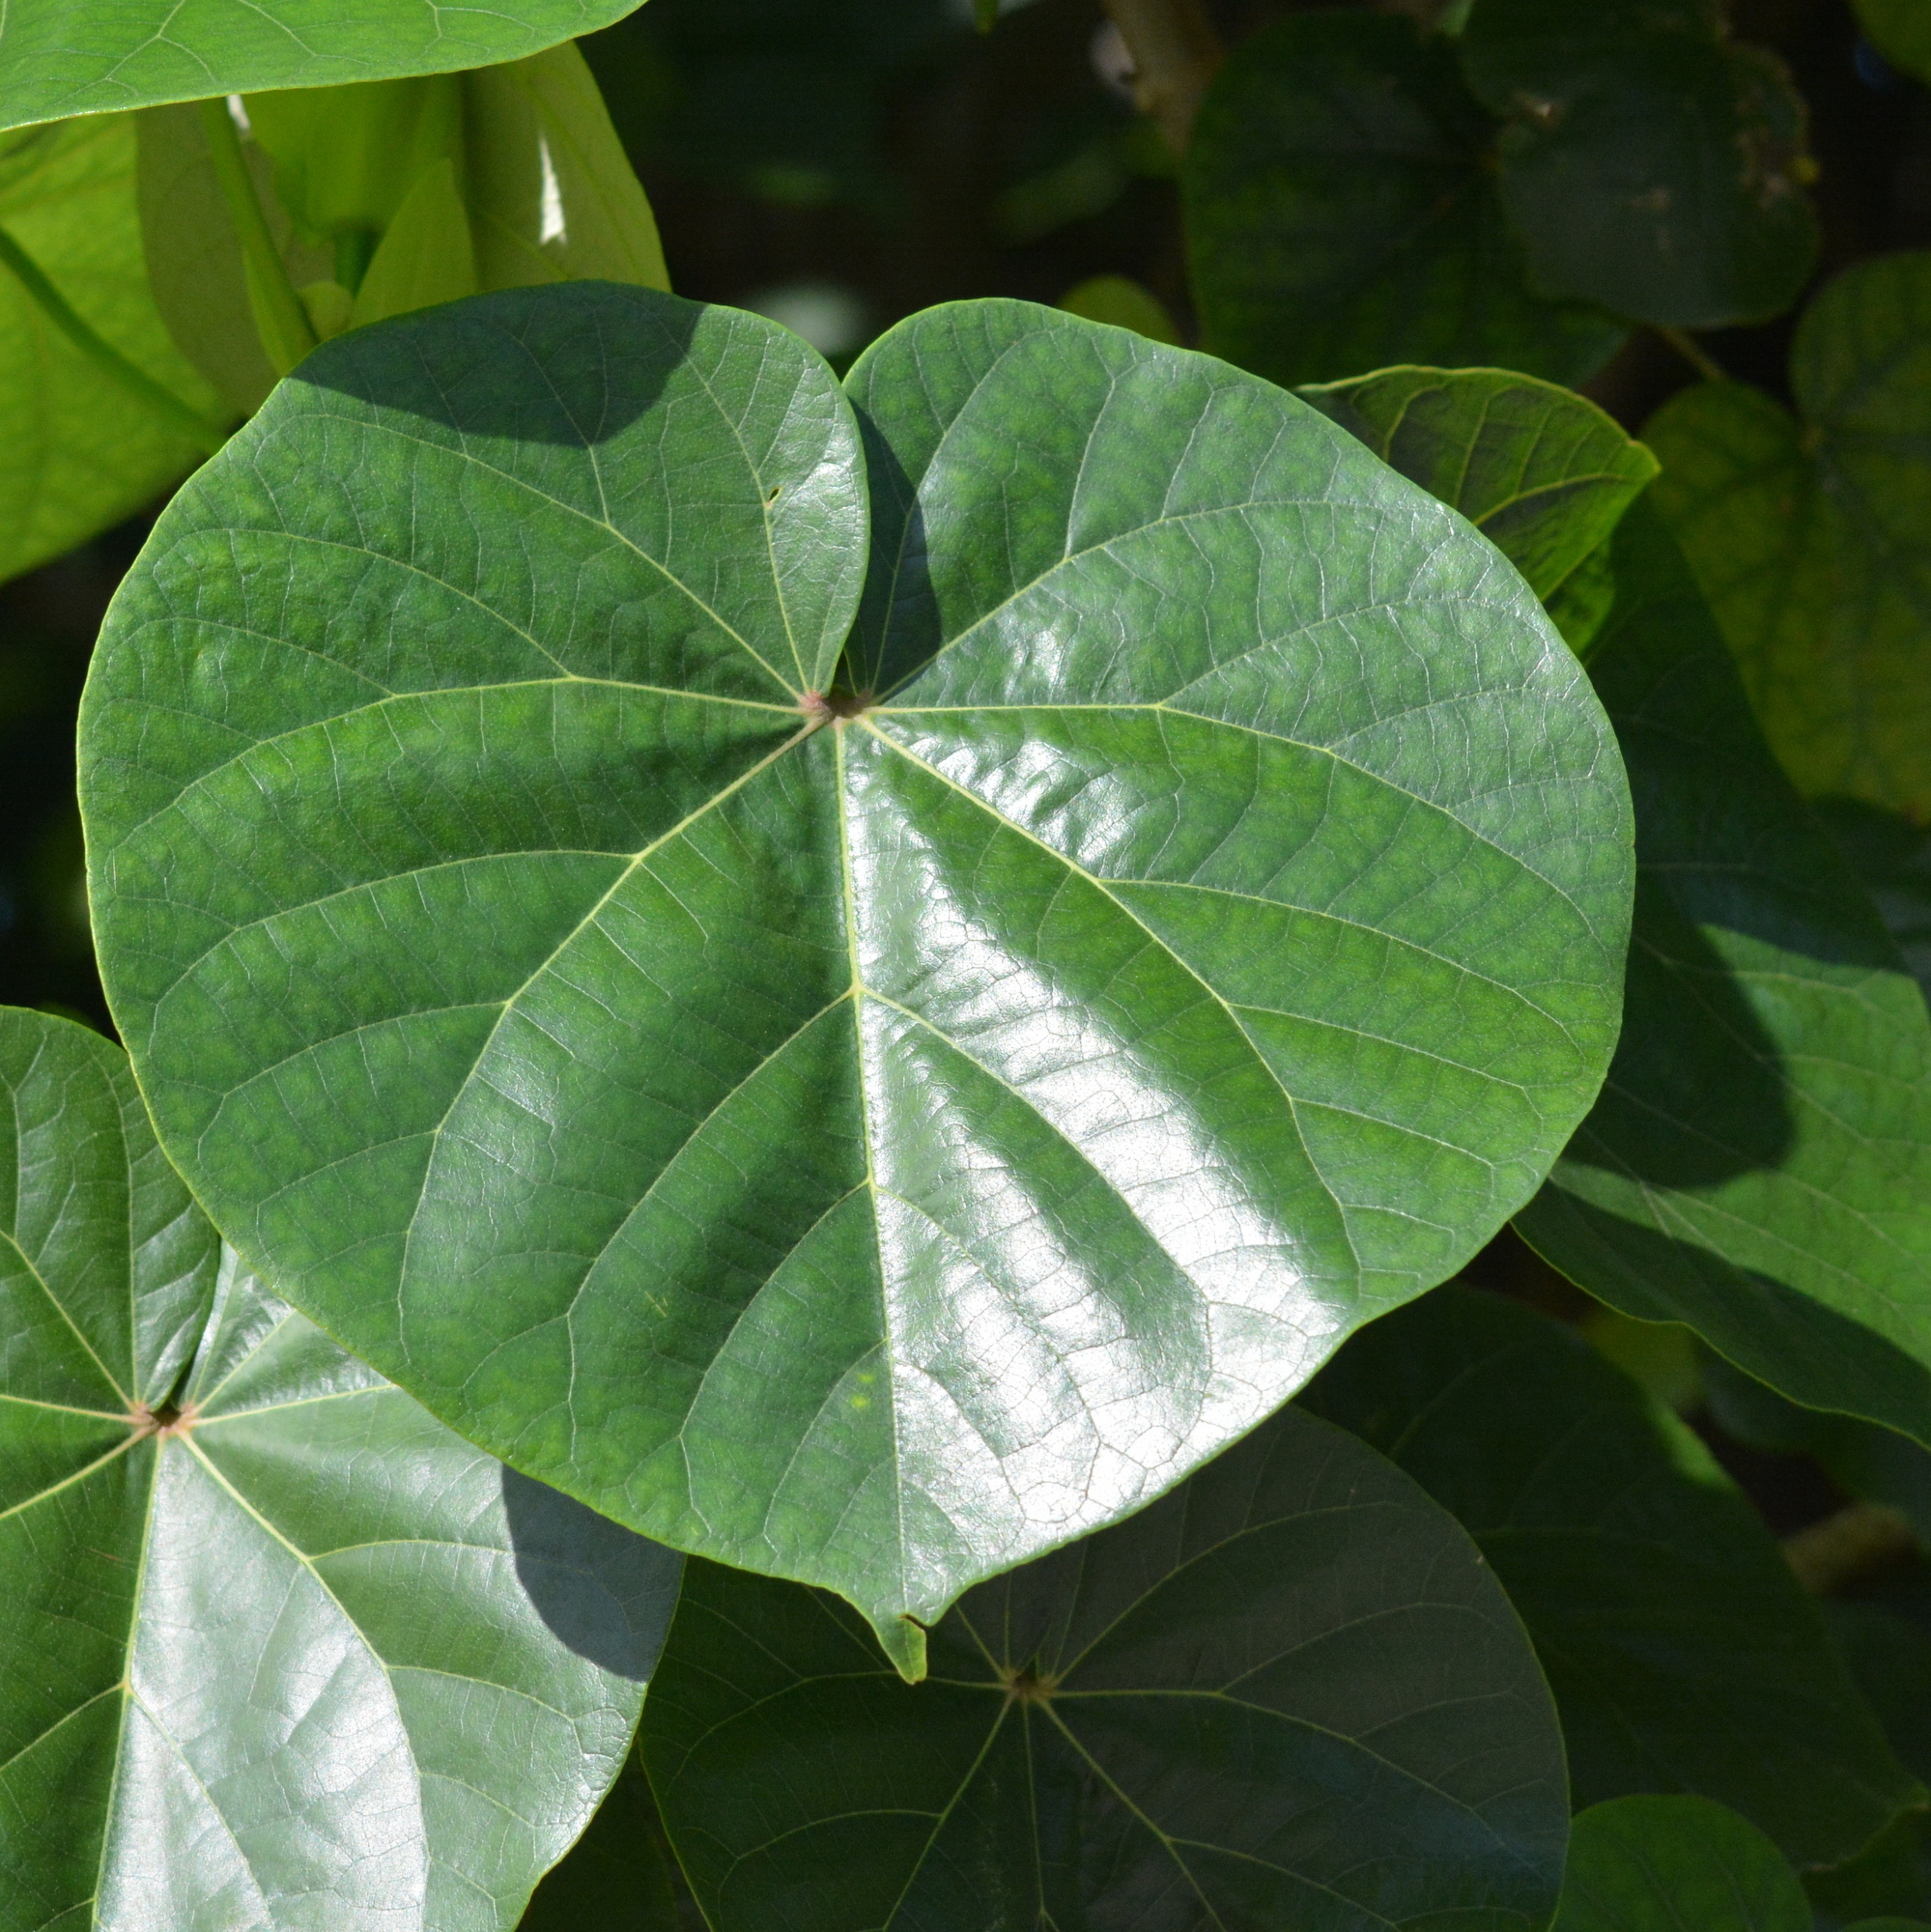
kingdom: Plantae
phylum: Tracheophyta
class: Magnoliopsida
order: Malvales
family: Malvaceae
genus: Talipariti
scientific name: Talipariti tiliaceum
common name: Sea hibiscus
